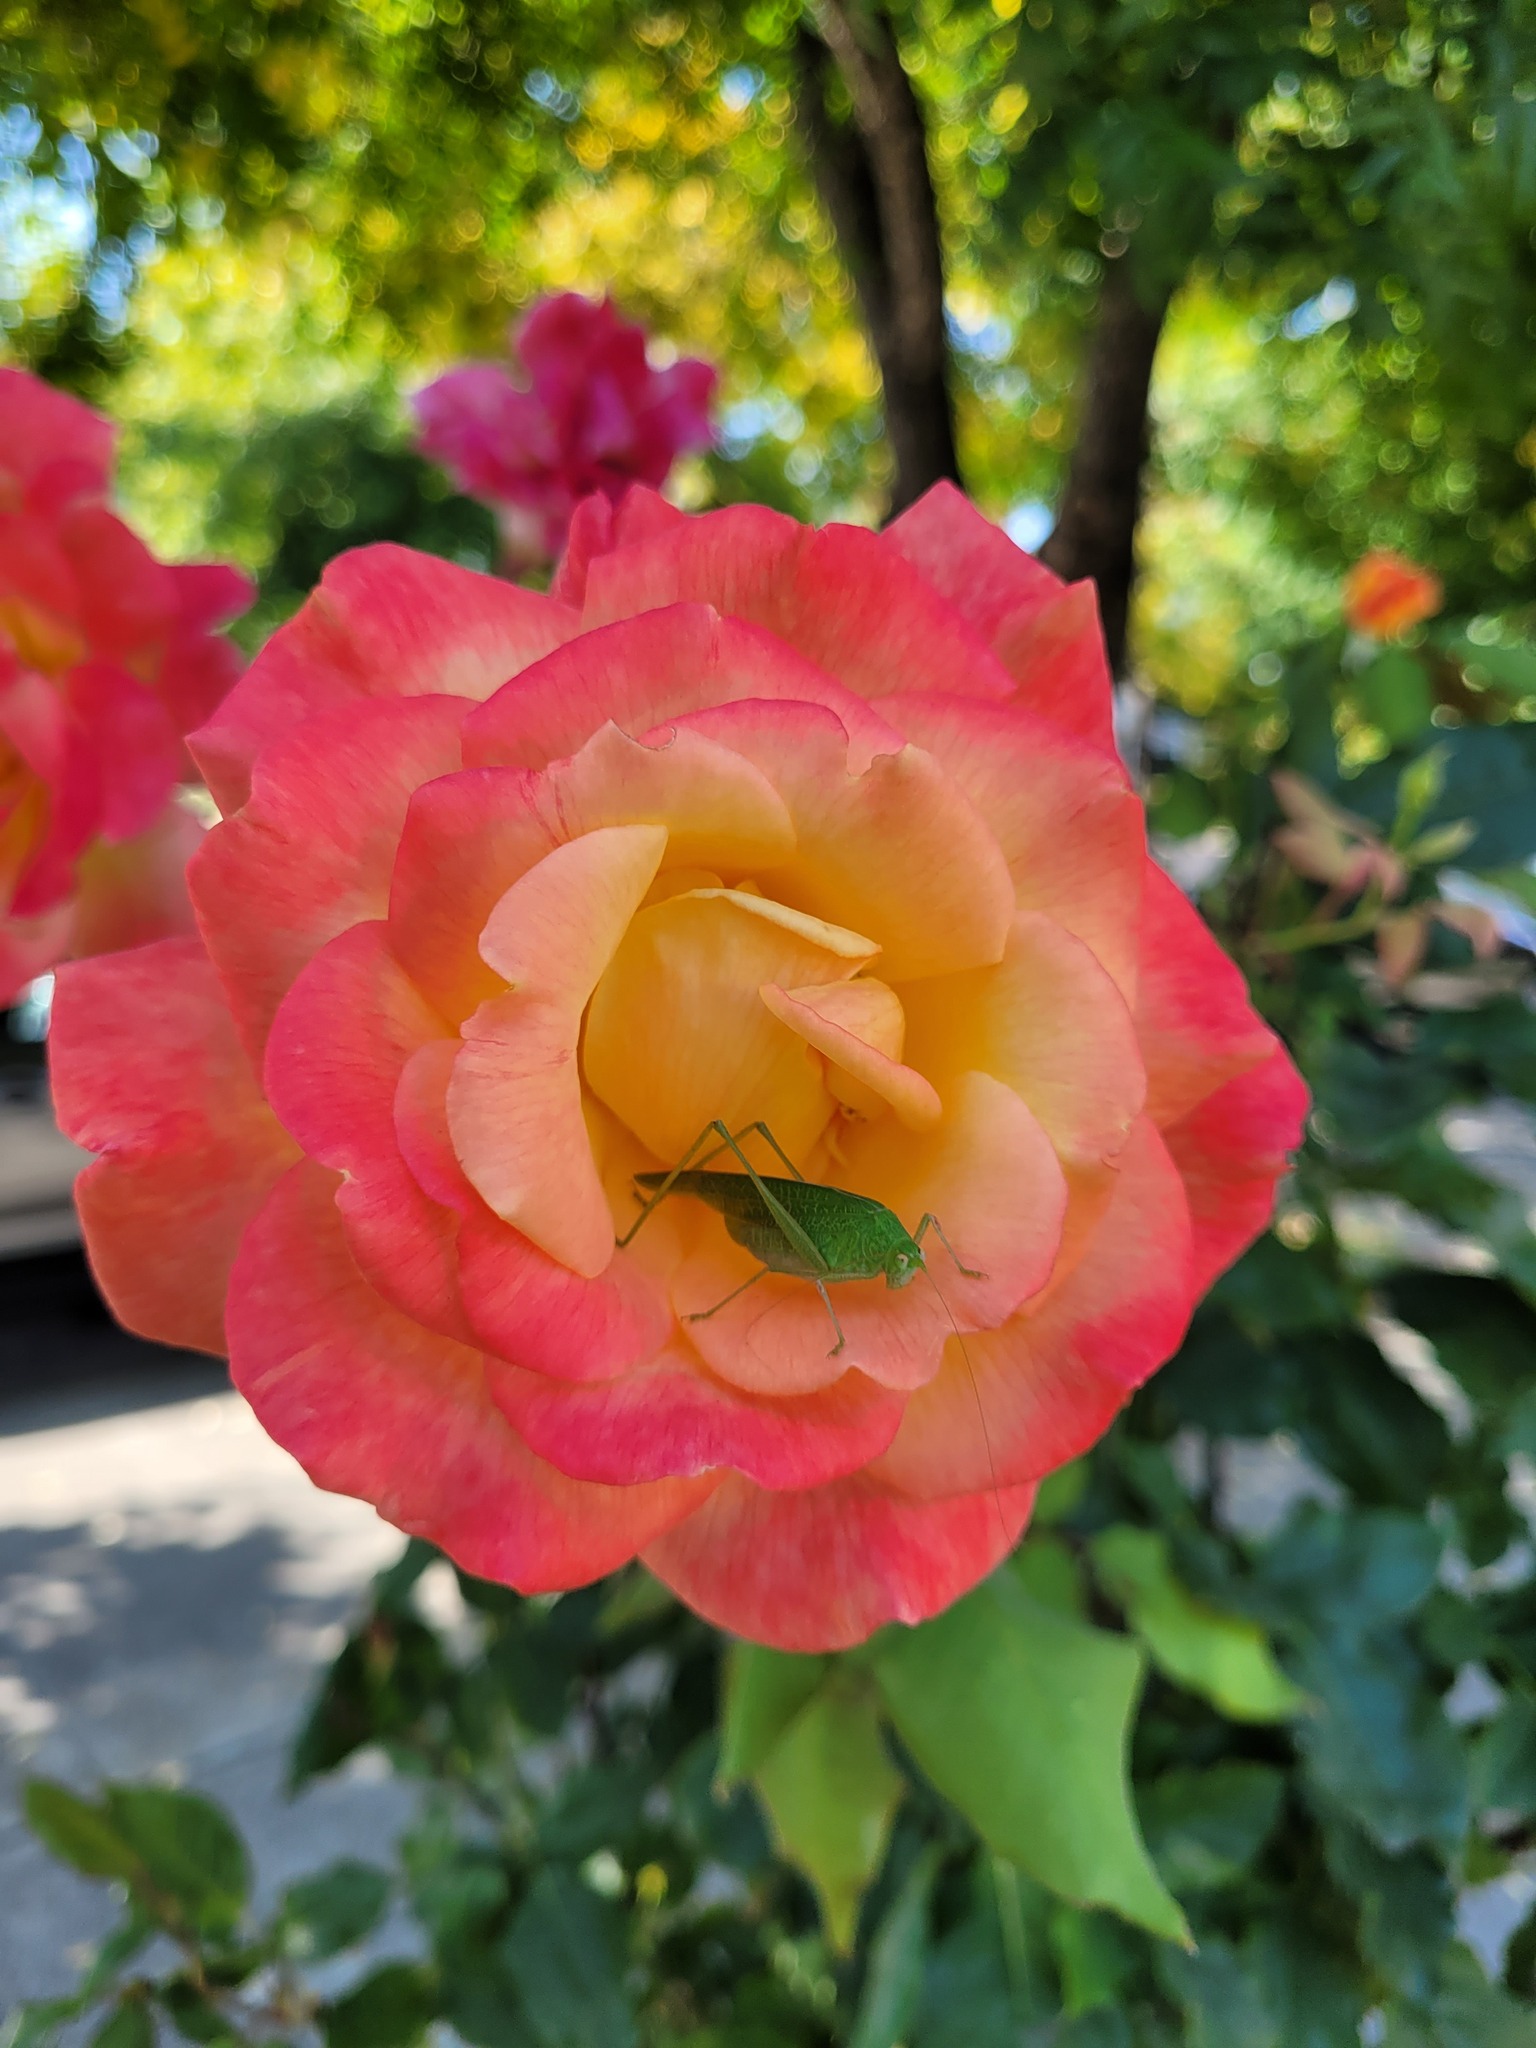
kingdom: Animalia
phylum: Arthropoda
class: Insecta
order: Orthoptera
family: Tettigoniidae
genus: Phaneroptera
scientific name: Phaneroptera nana
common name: Southern sickle bush-cricket
